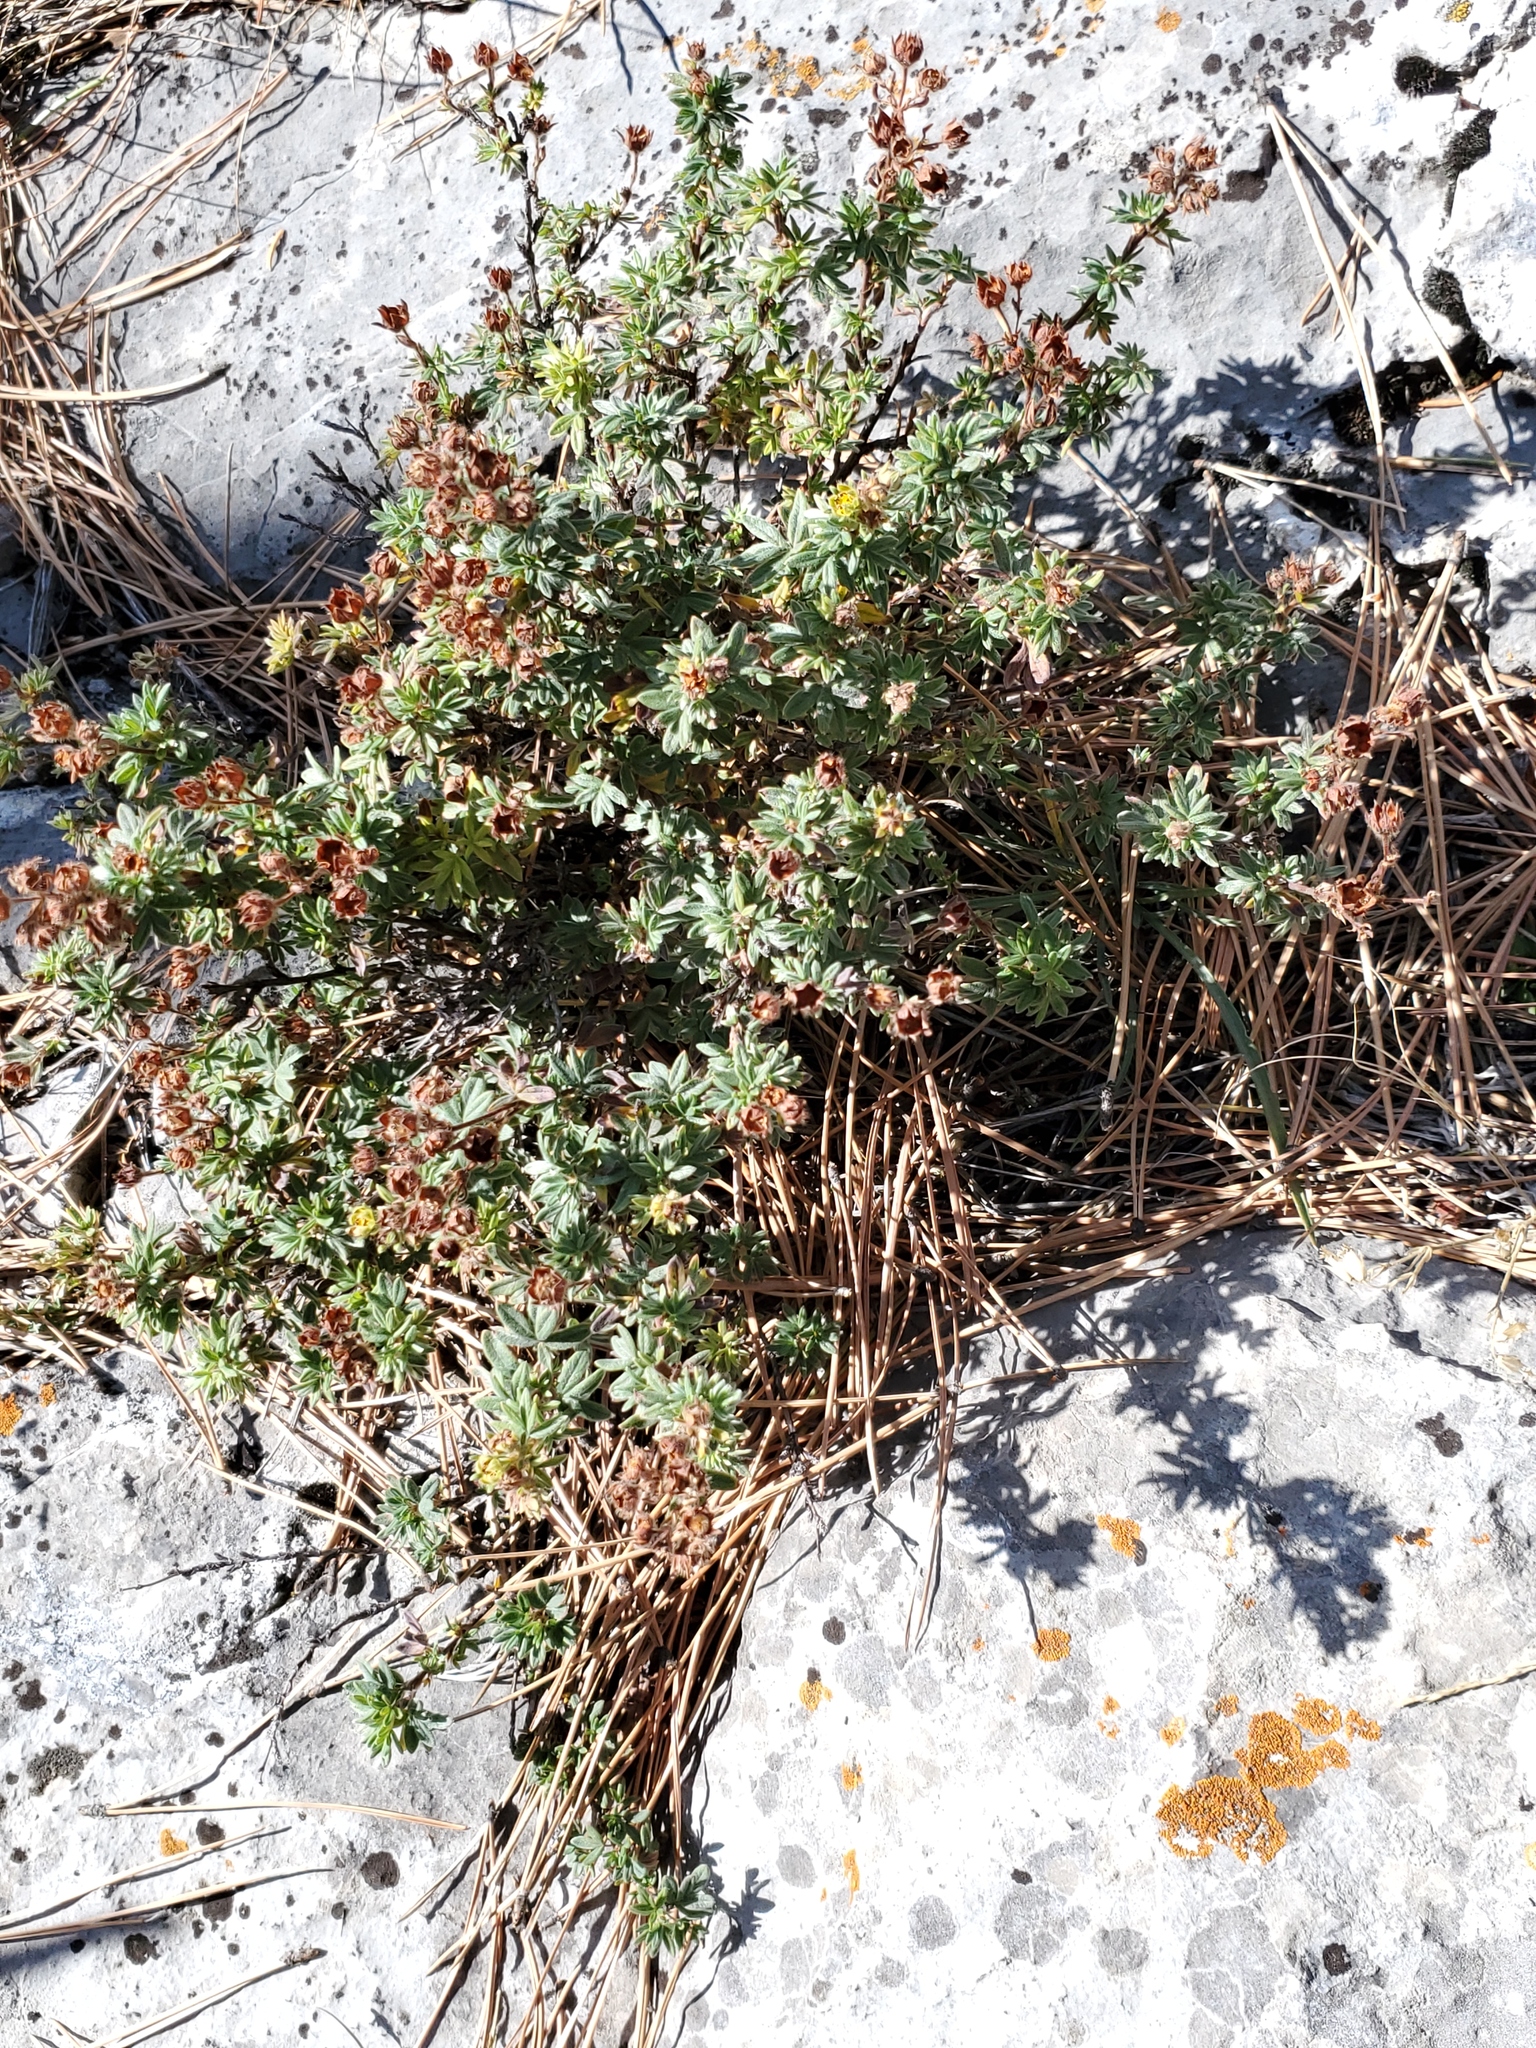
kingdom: Plantae
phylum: Tracheophyta
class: Magnoliopsida
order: Rosales
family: Rosaceae
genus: Dasiphora
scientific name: Dasiphora fruticosa
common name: Shrubby cinquefoil
